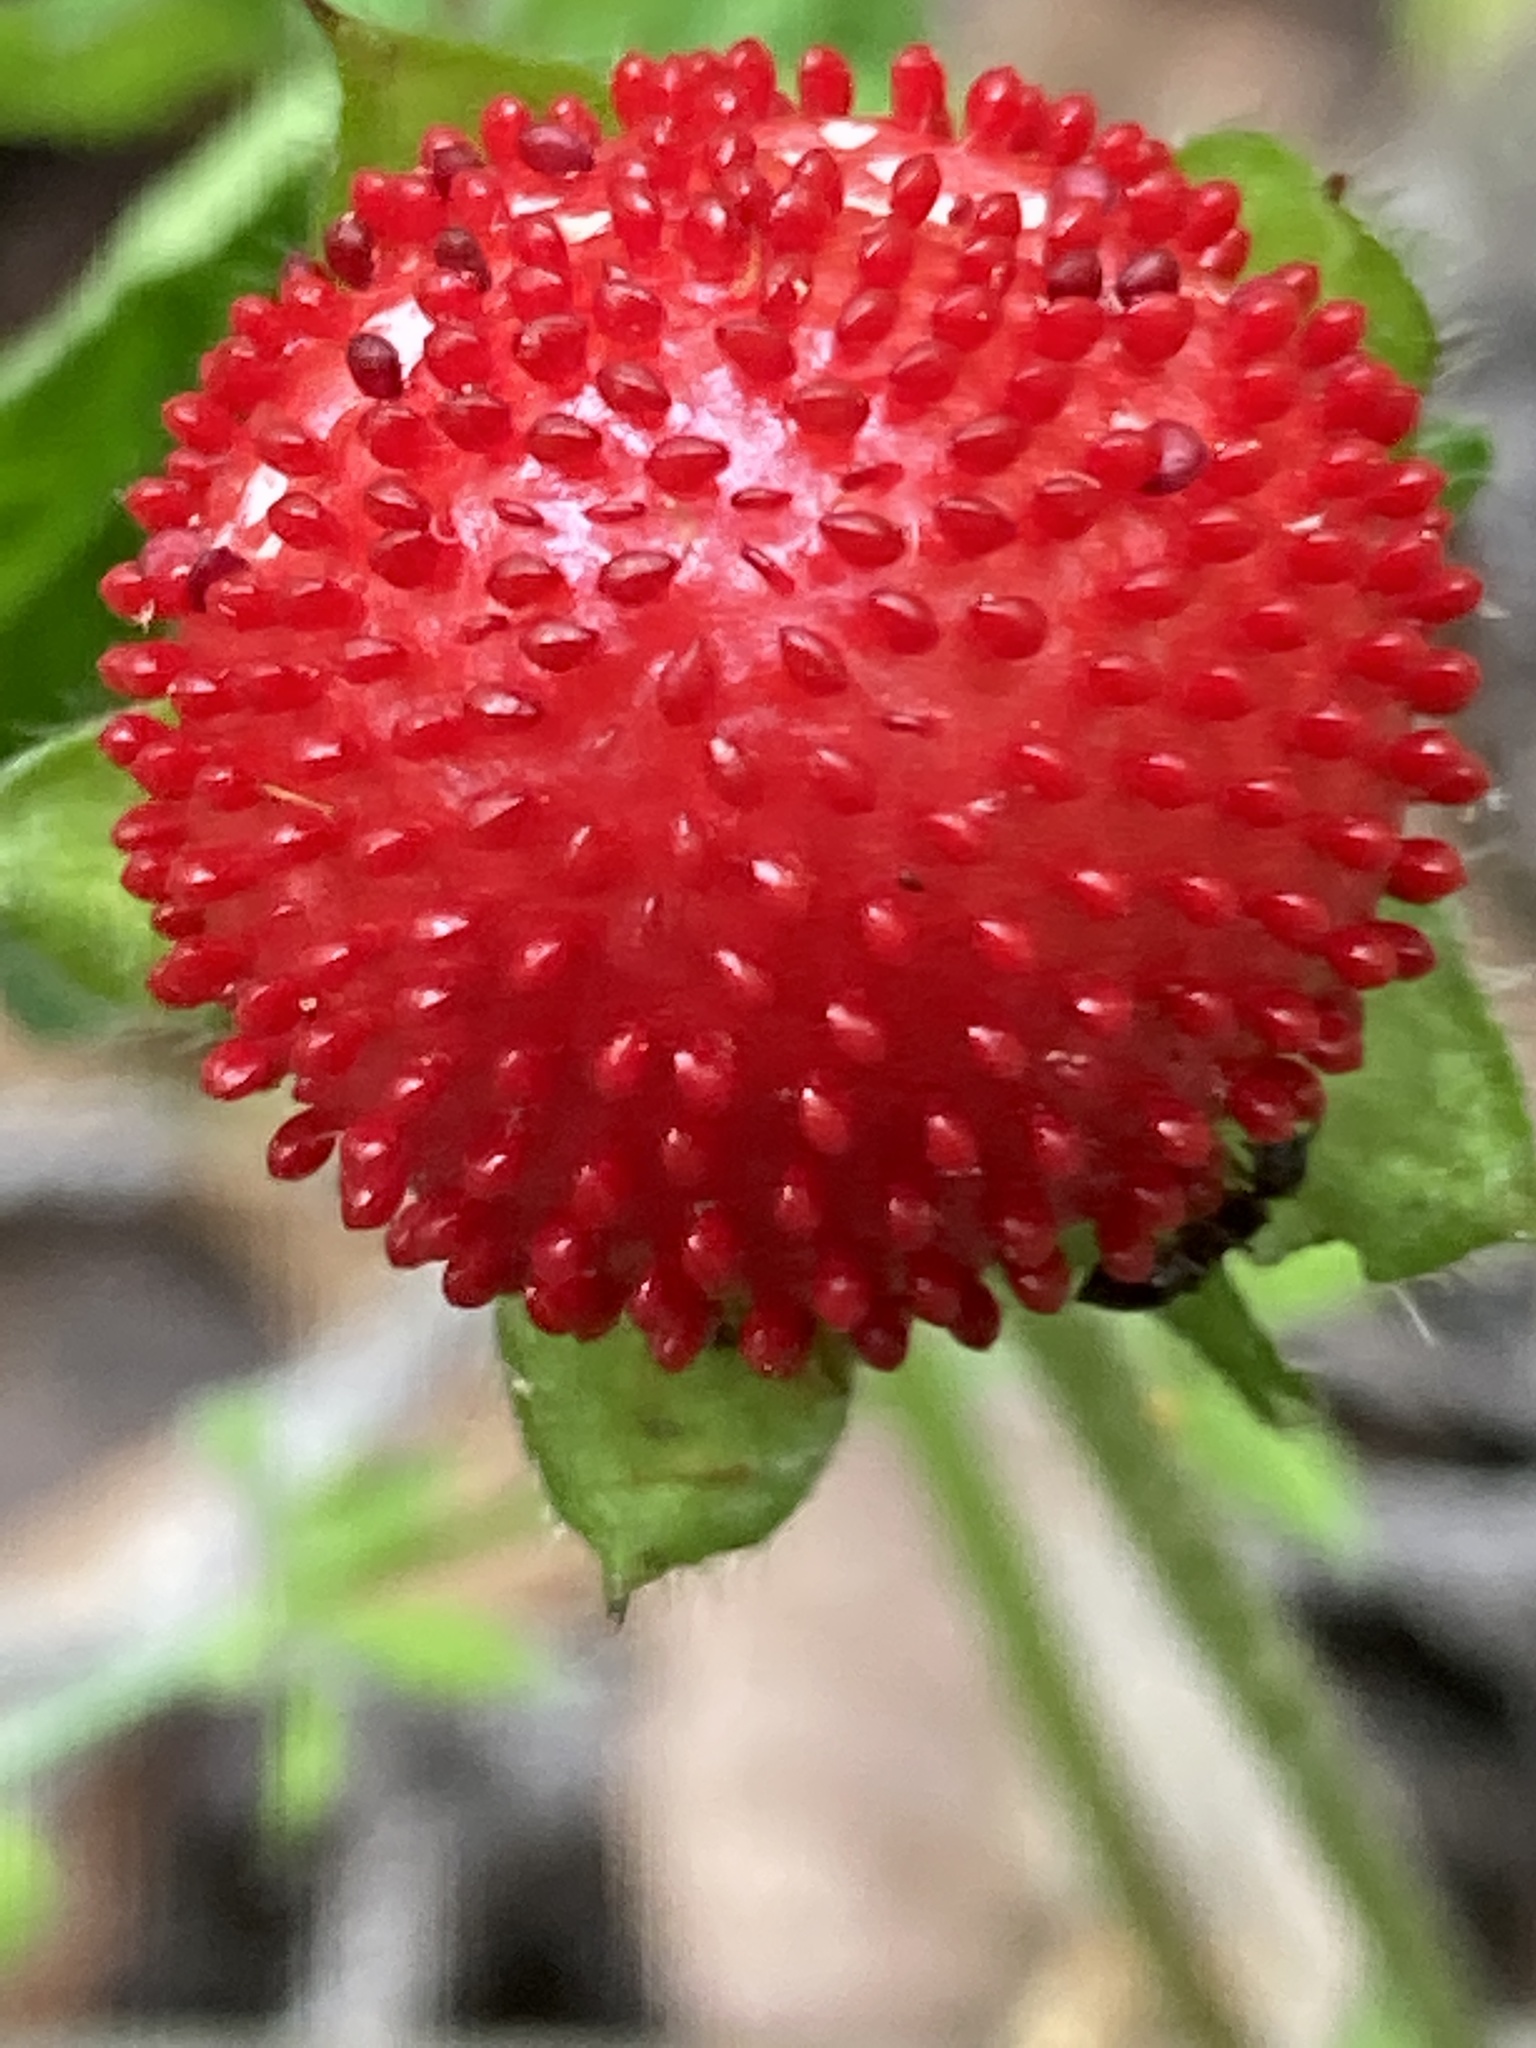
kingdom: Plantae
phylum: Tracheophyta
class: Magnoliopsida
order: Rosales
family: Rosaceae
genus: Potentilla
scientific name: Potentilla indica
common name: Yellow-flowered strawberry
